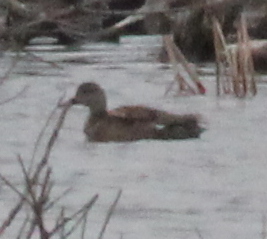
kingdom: Animalia
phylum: Chordata
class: Aves
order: Anseriformes
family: Anatidae
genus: Mareca
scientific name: Mareca strepera
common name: Gadwall
